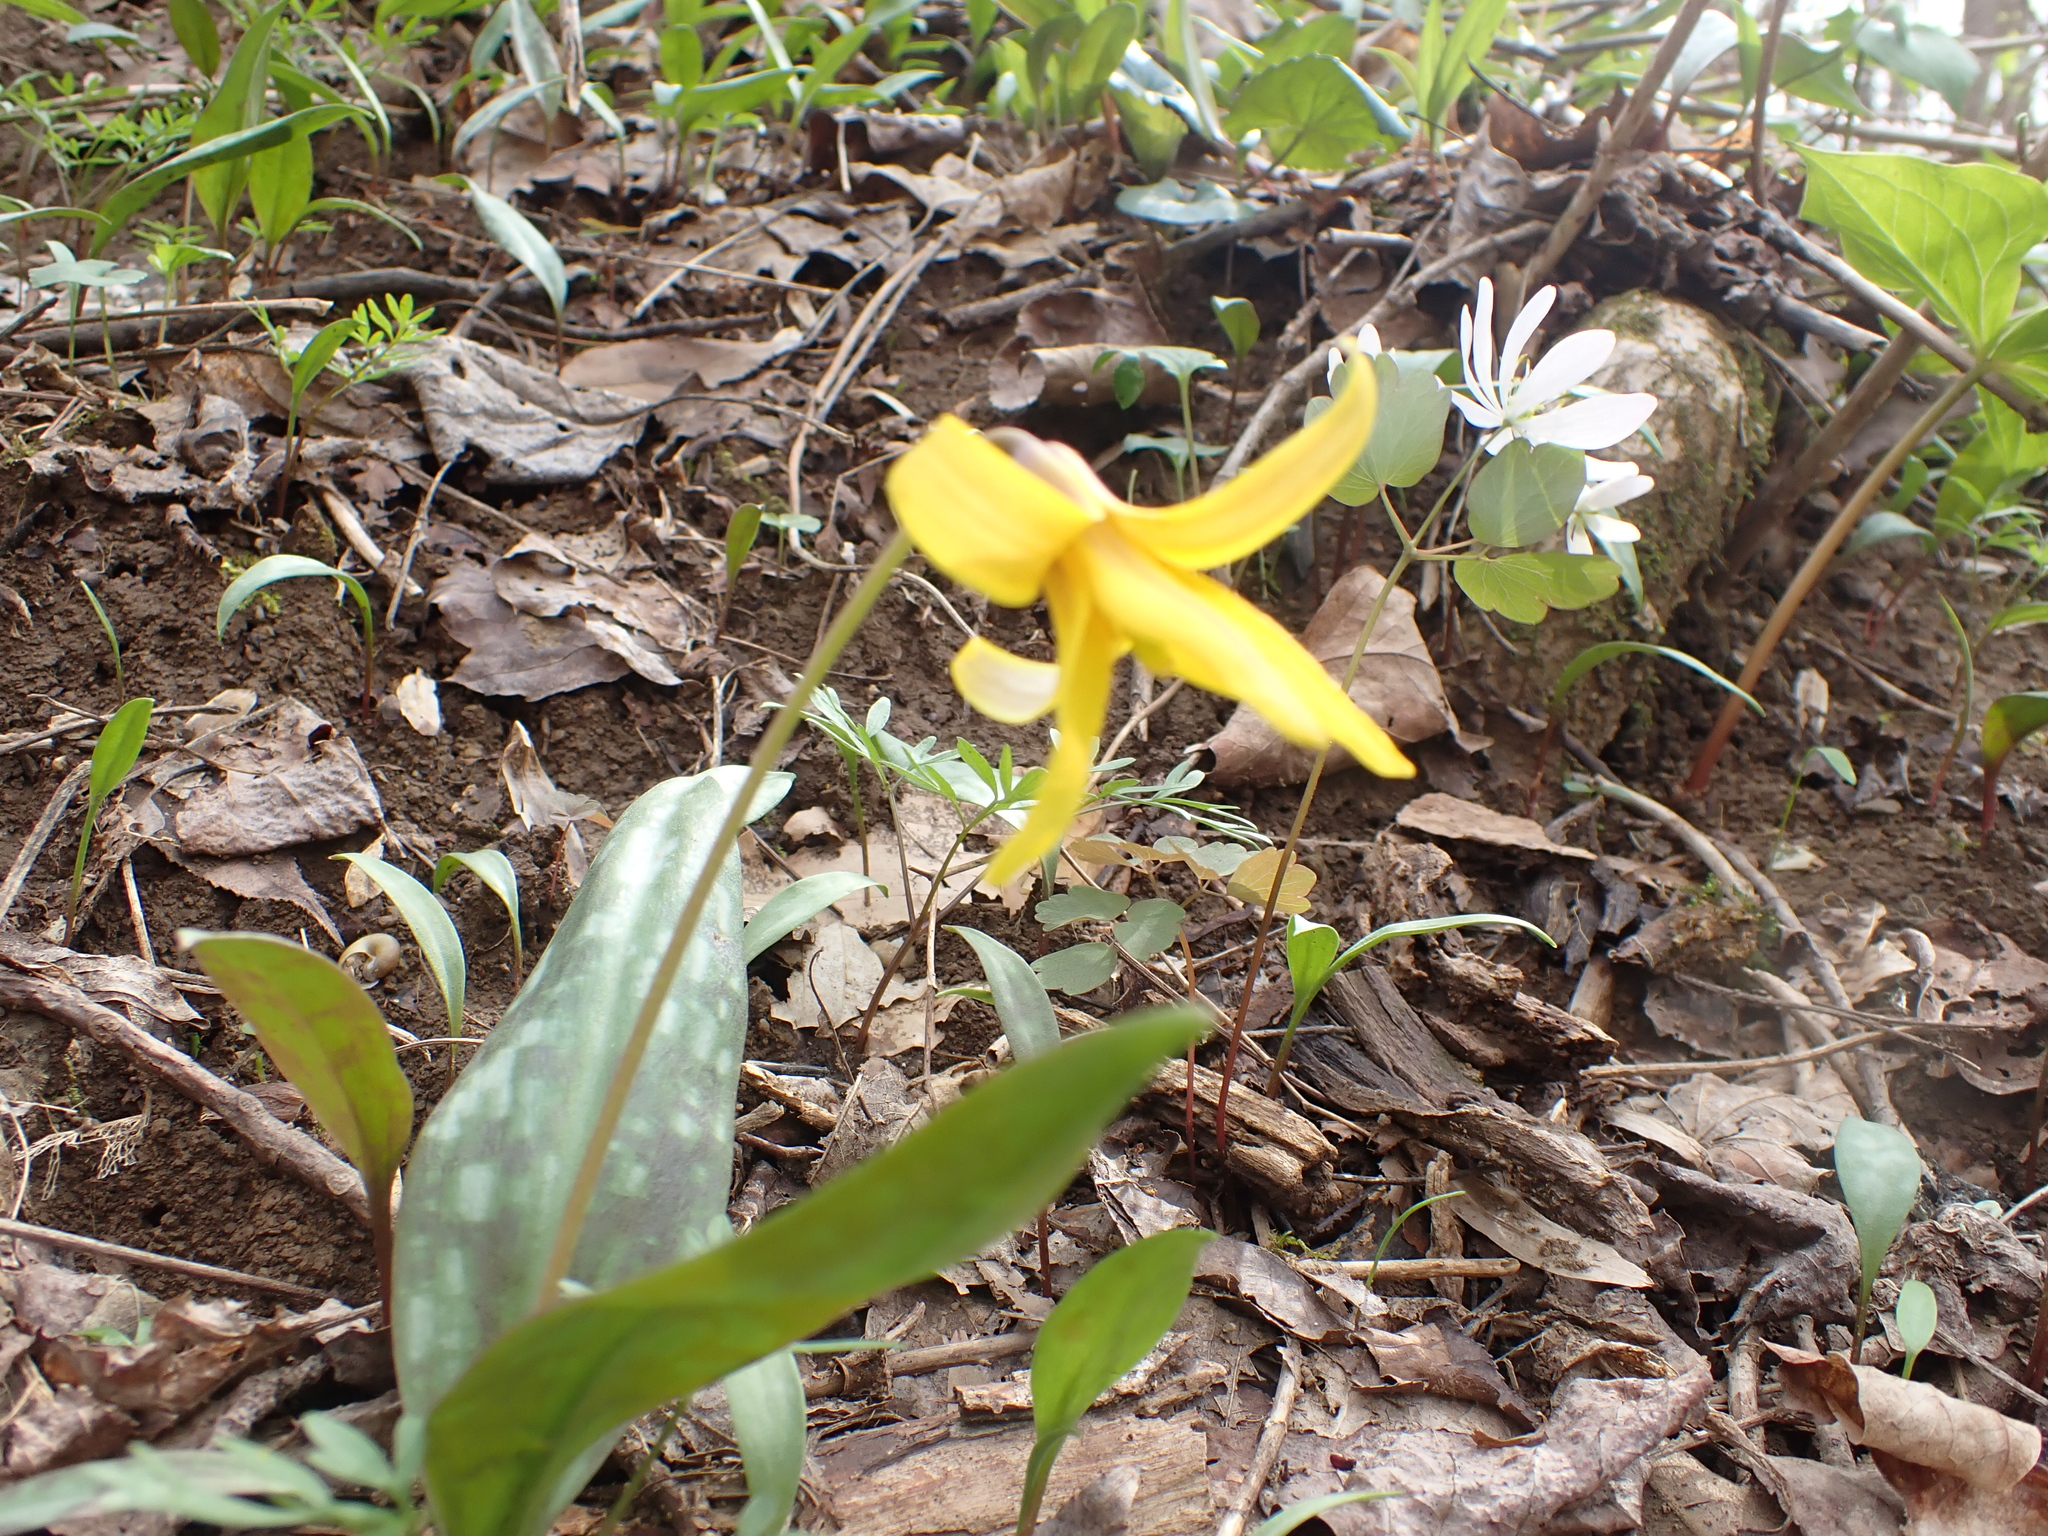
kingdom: Plantae
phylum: Tracheophyta
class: Liliopsida
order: Liliales
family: Liliaceae
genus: Erythronium
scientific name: Erythronium americanum
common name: Yellow adder's-tongue
